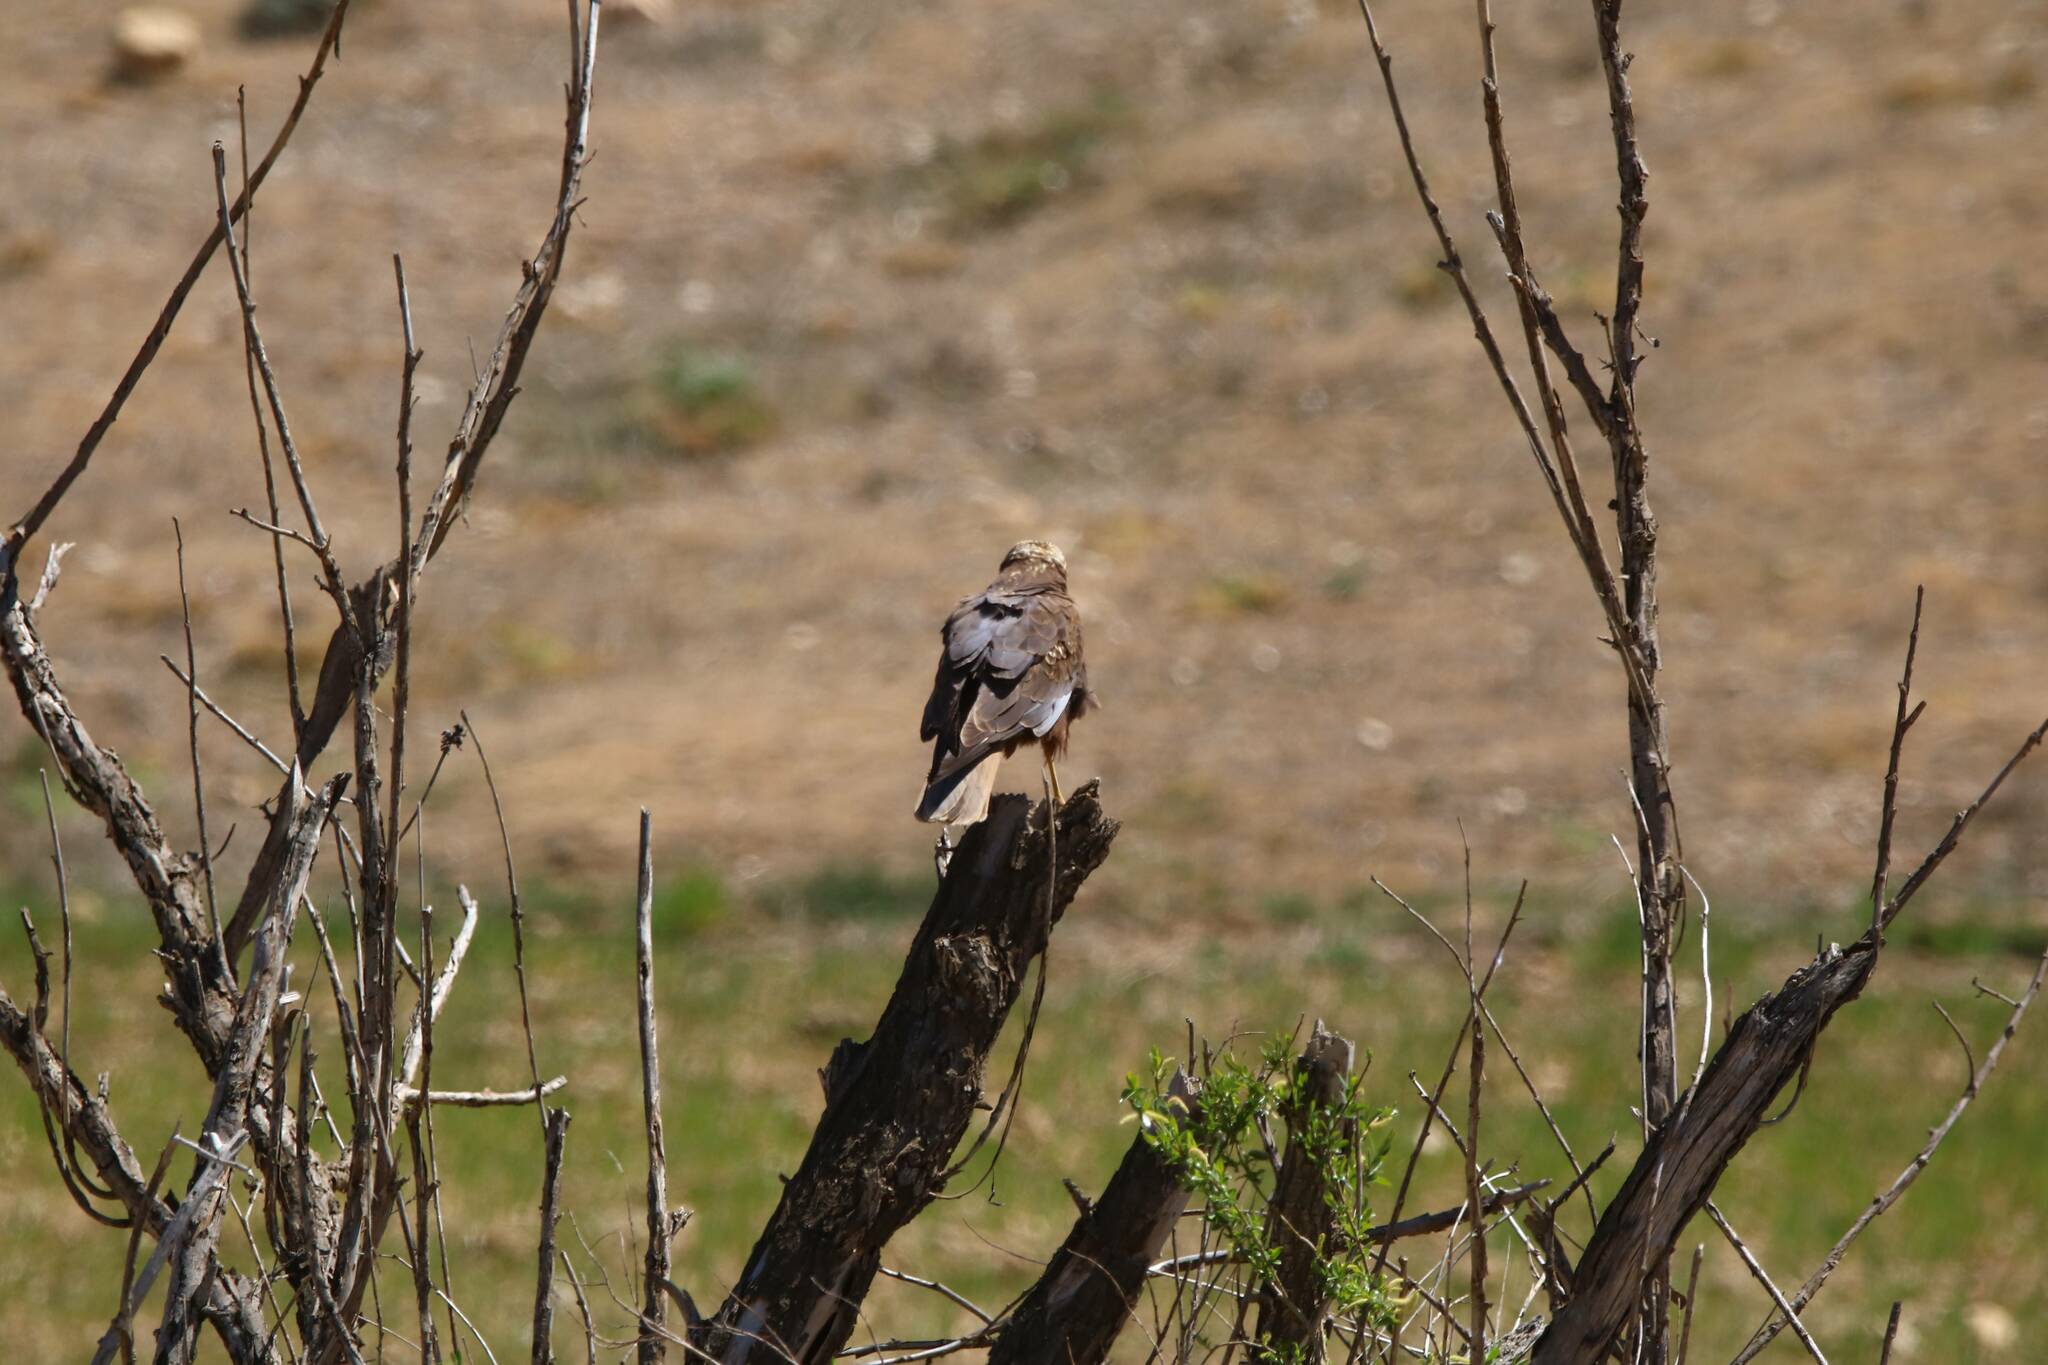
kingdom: Animalia
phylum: Chordata
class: Aves
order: Accipitriformes
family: Accipitridae
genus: Circus
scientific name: Circus aeruginosus
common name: Western marsh harrier
